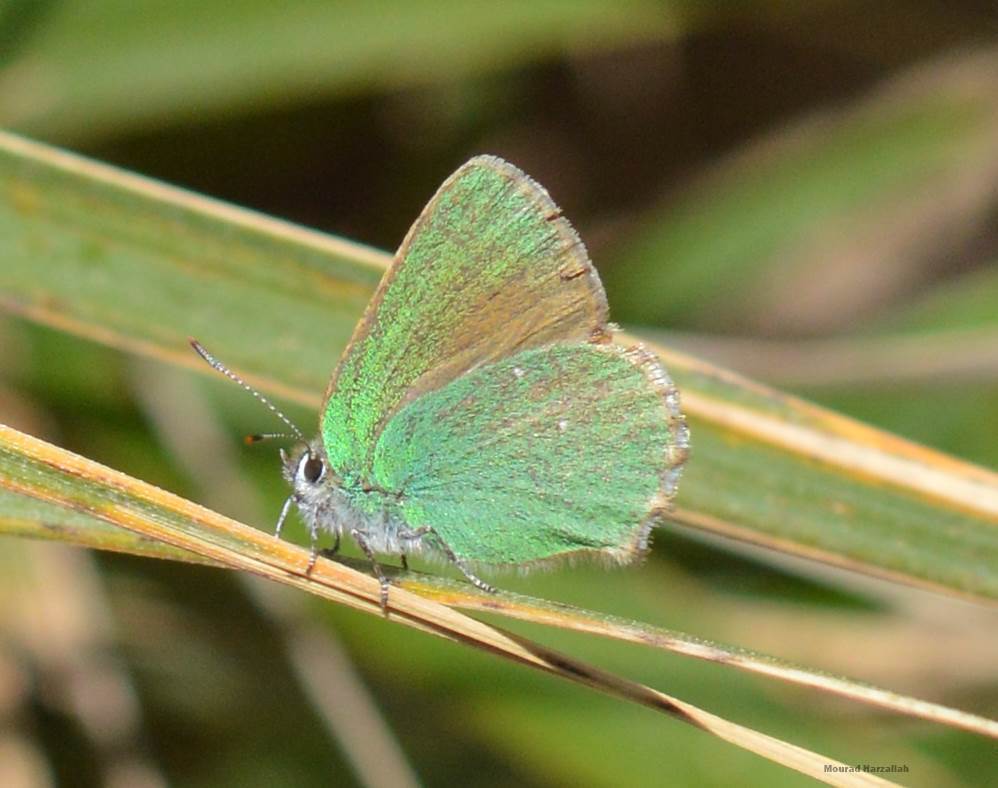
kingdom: Animalia
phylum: Arthropoda
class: Insecta
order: Lepidoptera
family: Lycaenidae
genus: Callophrys
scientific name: Callophrys rubi
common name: Green hairstreak
